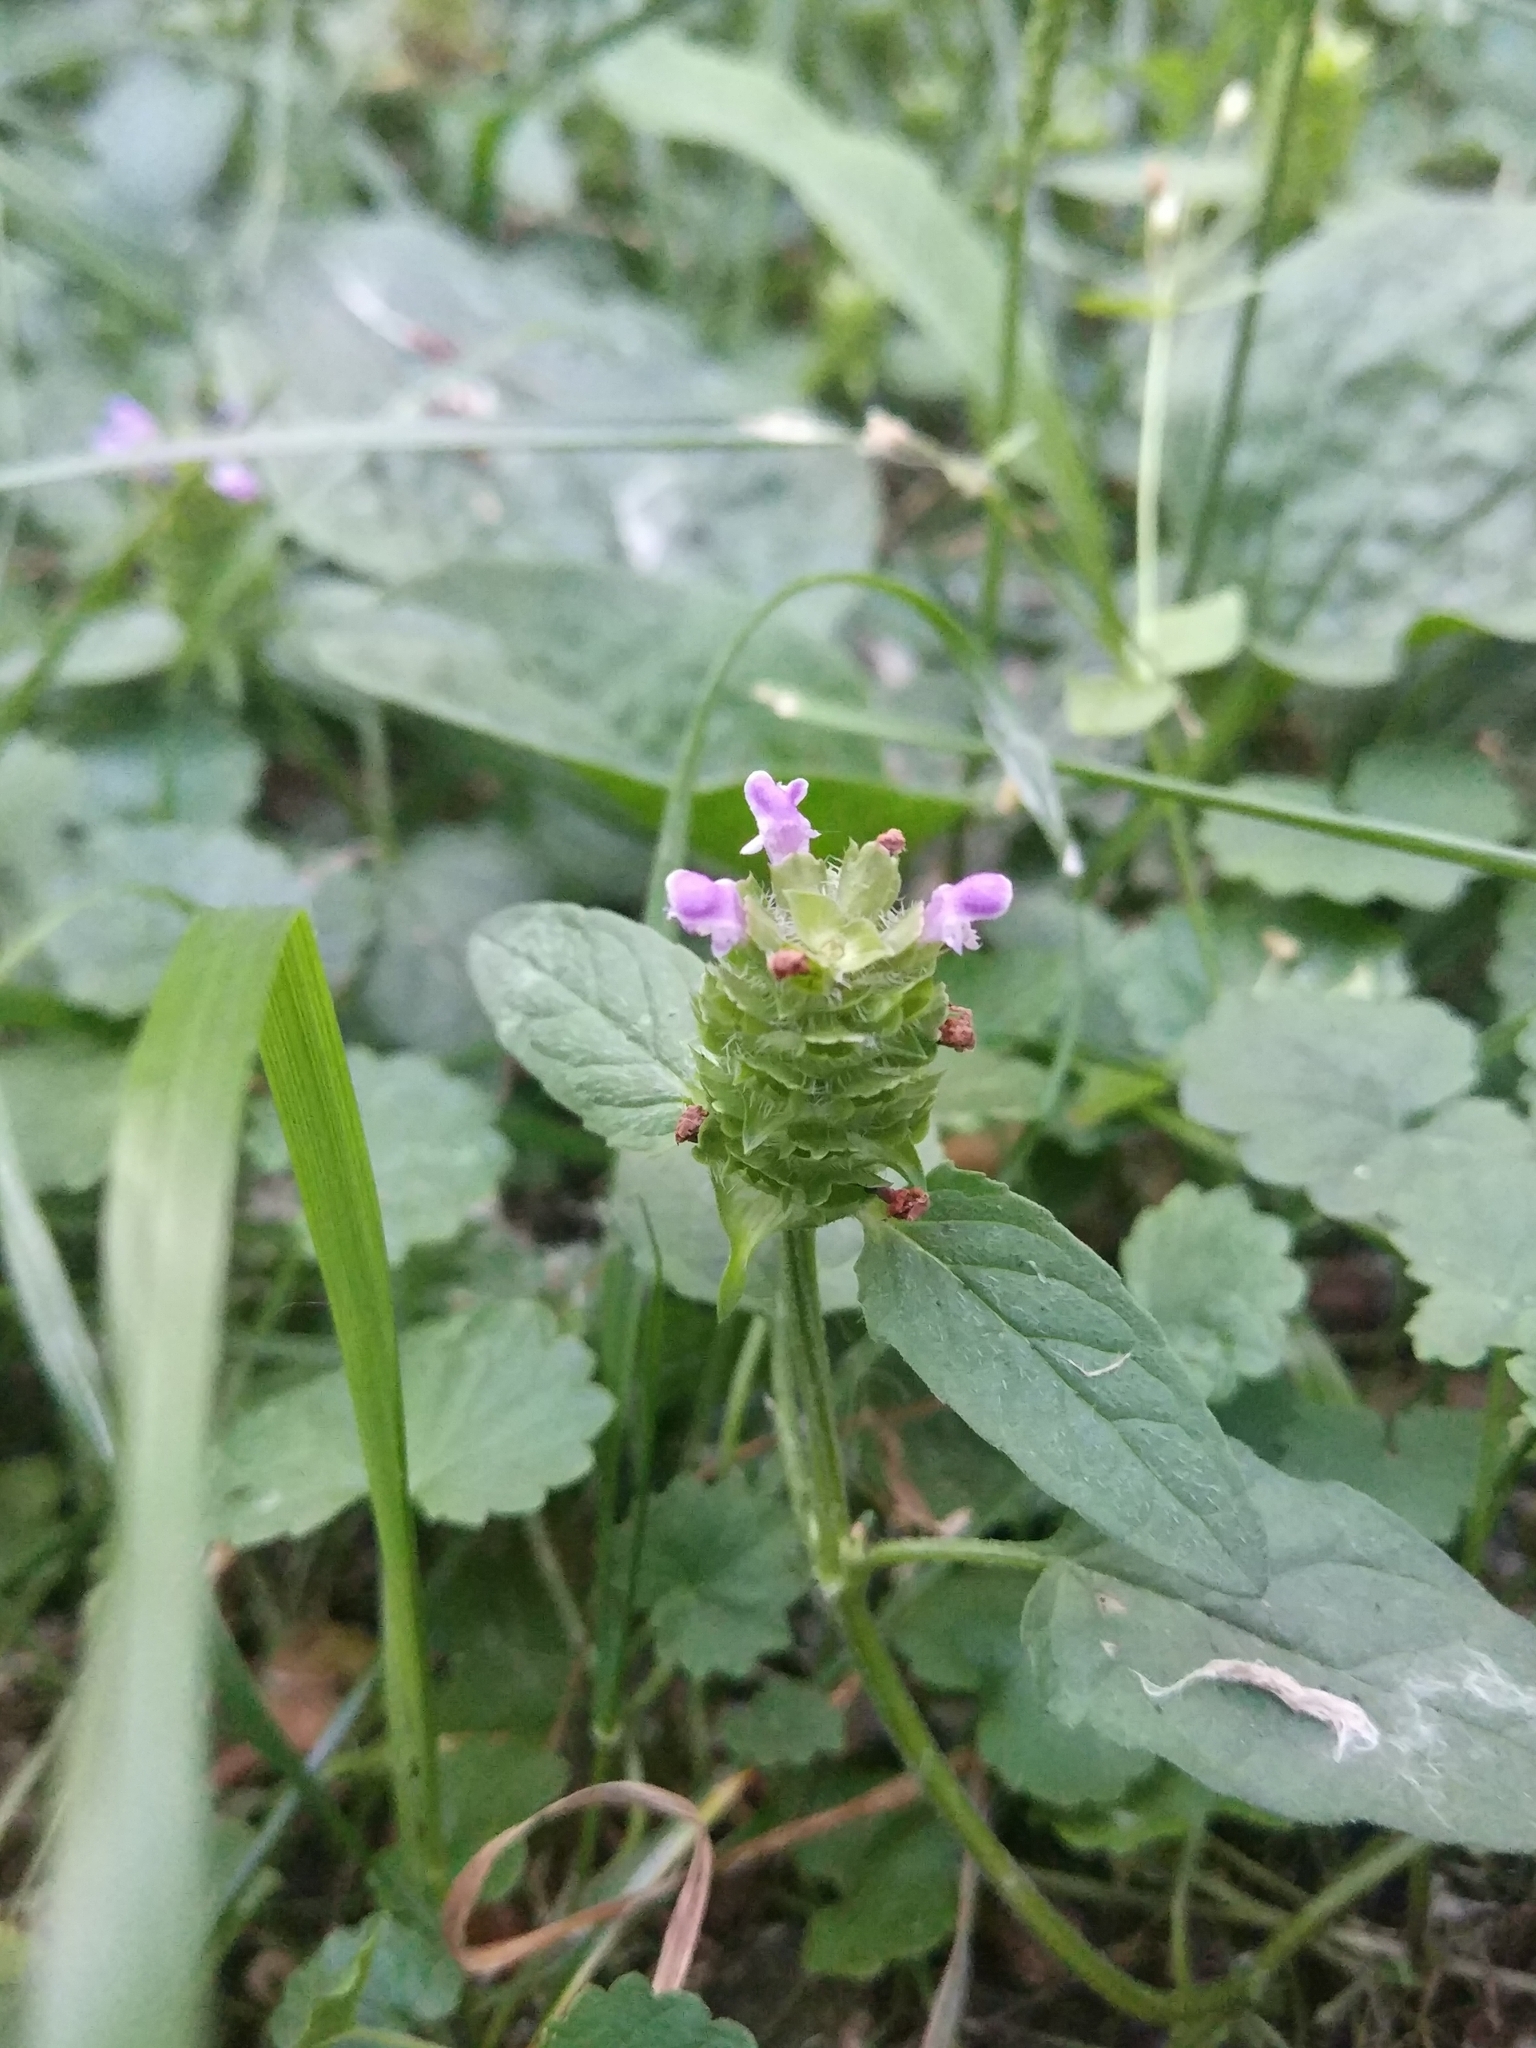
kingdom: Plantae
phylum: Tracheophyta
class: Magnoliopsida
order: Lamiales
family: Lamiaceae
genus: Prunella
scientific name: Prunella vulgaris
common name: Heal-all
